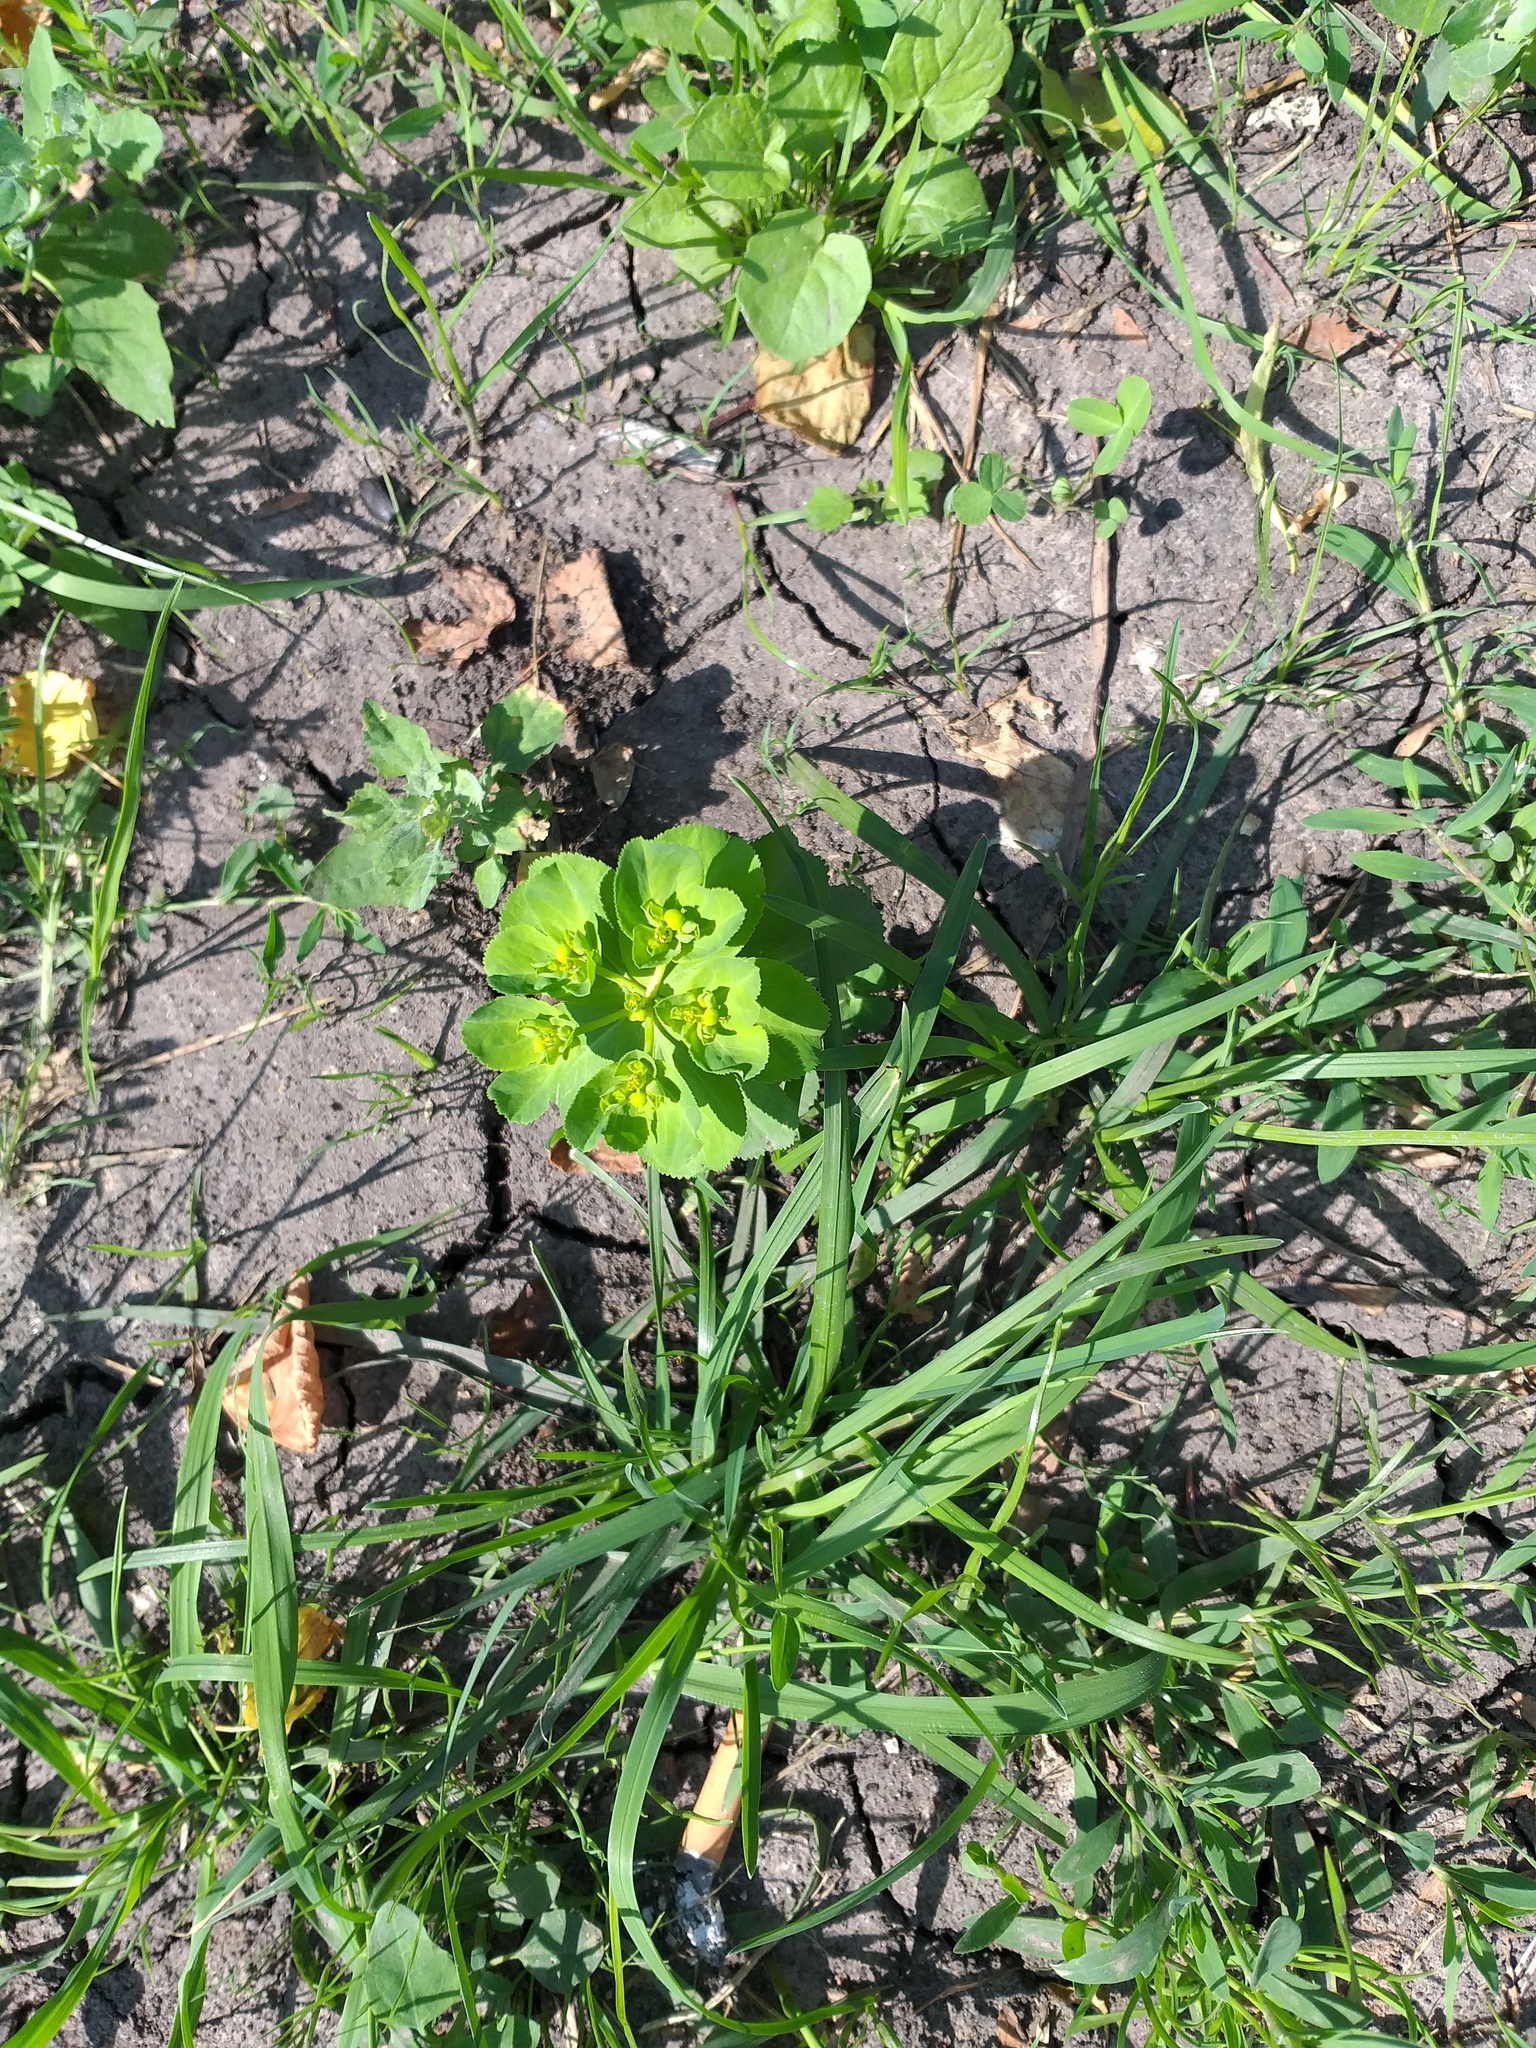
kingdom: Plantae
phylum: Tracheophyta
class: Magnoliopsida
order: Malpighiales
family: Euphorbiaceae
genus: Euphorbia
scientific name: Euphorbia helioscopia
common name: Sun spurge
